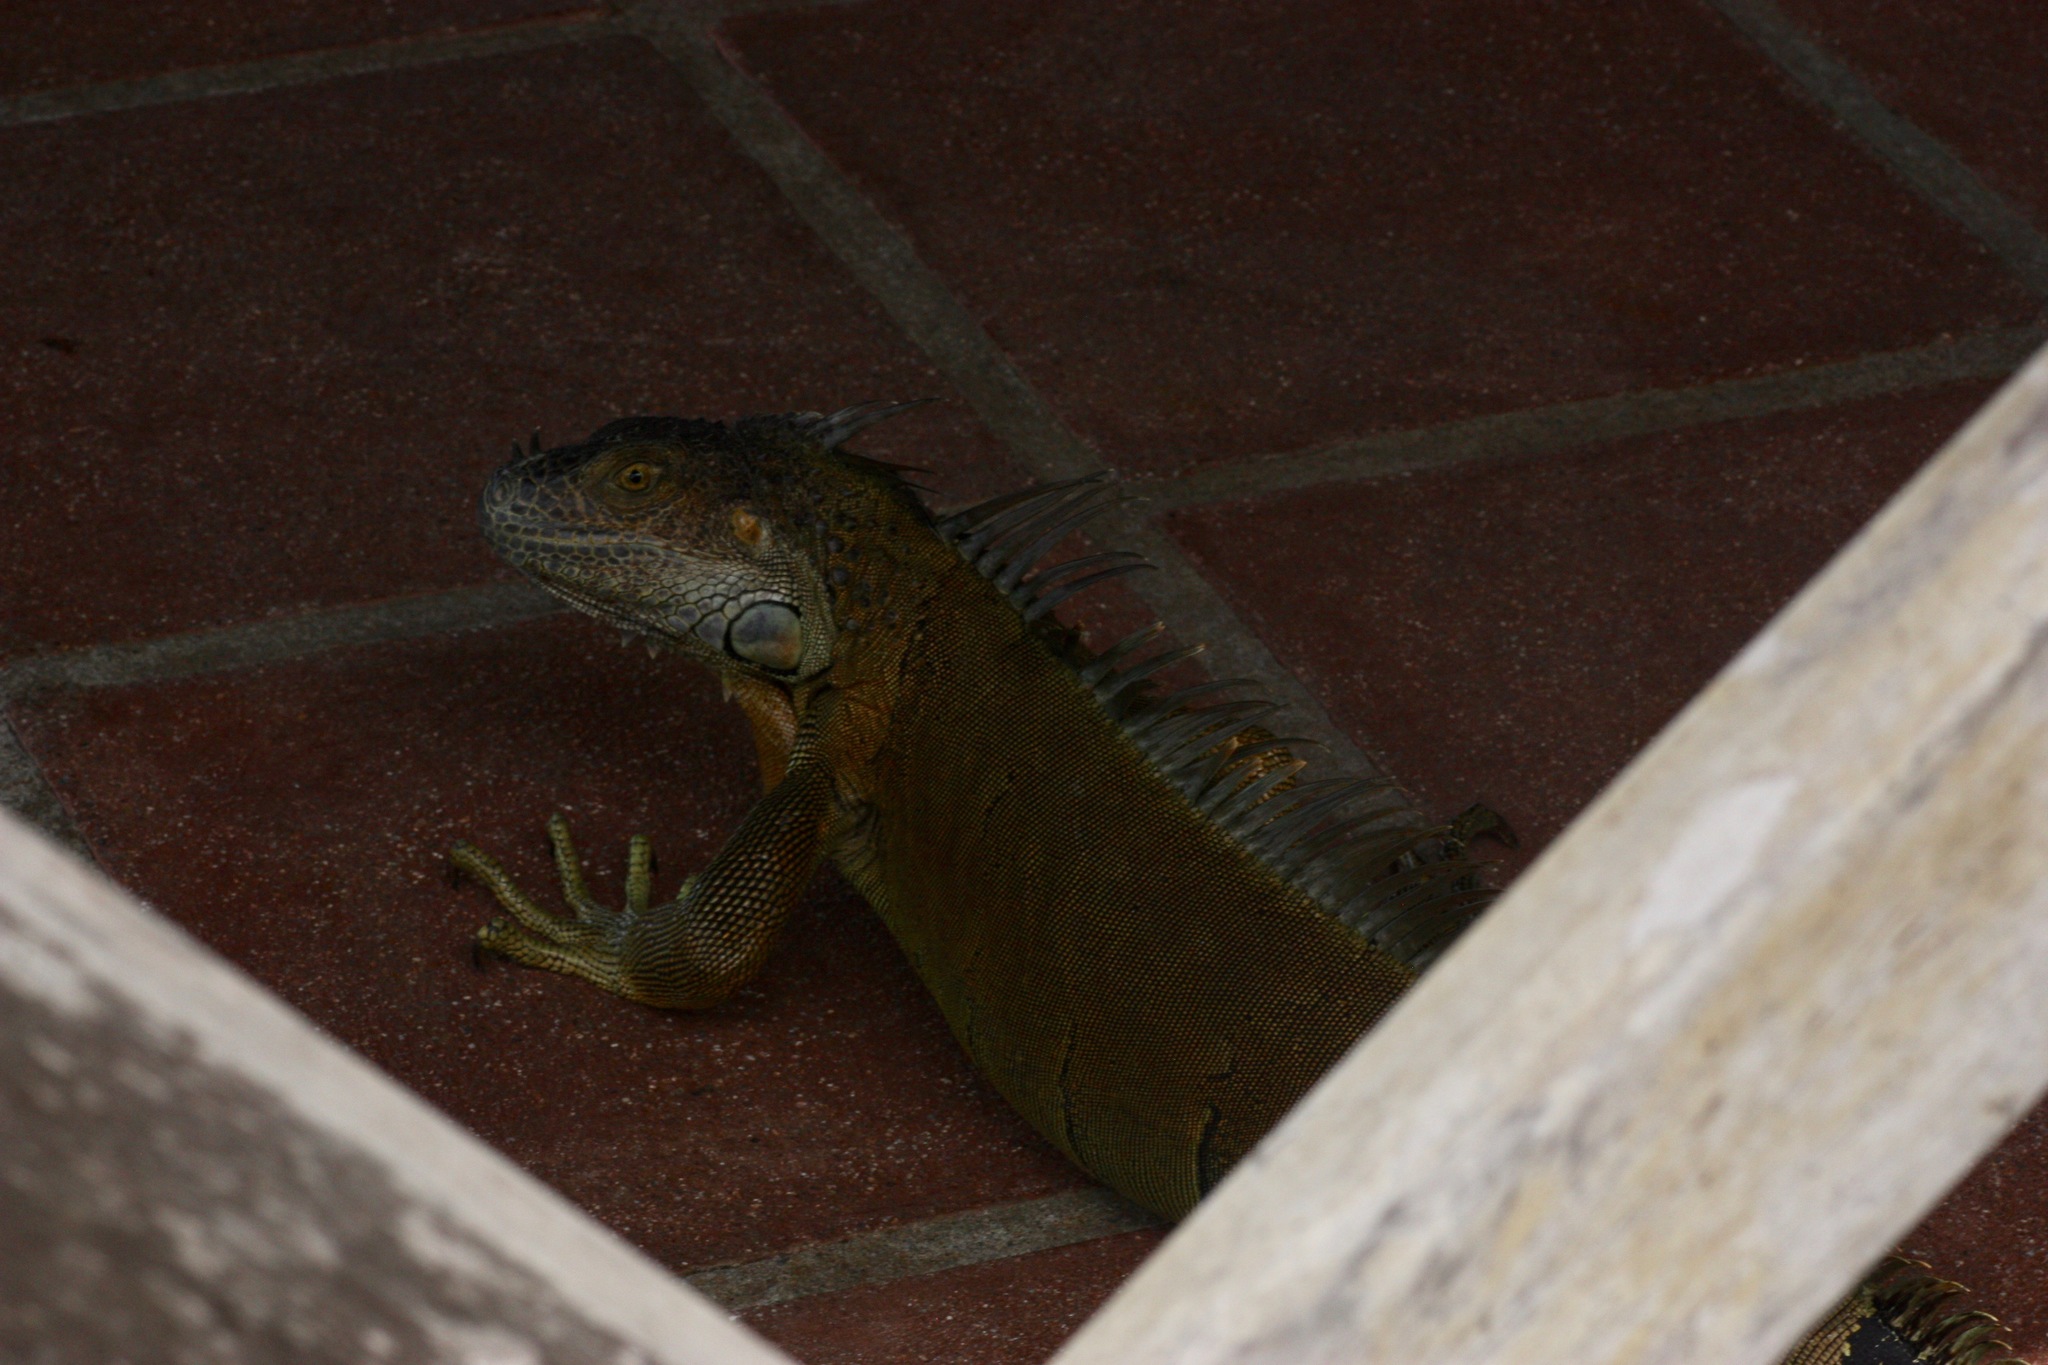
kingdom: Animalia
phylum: Chordata
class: Squamata
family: Iguanidae
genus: Iguana
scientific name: Iguana iguana
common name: Green iguana
